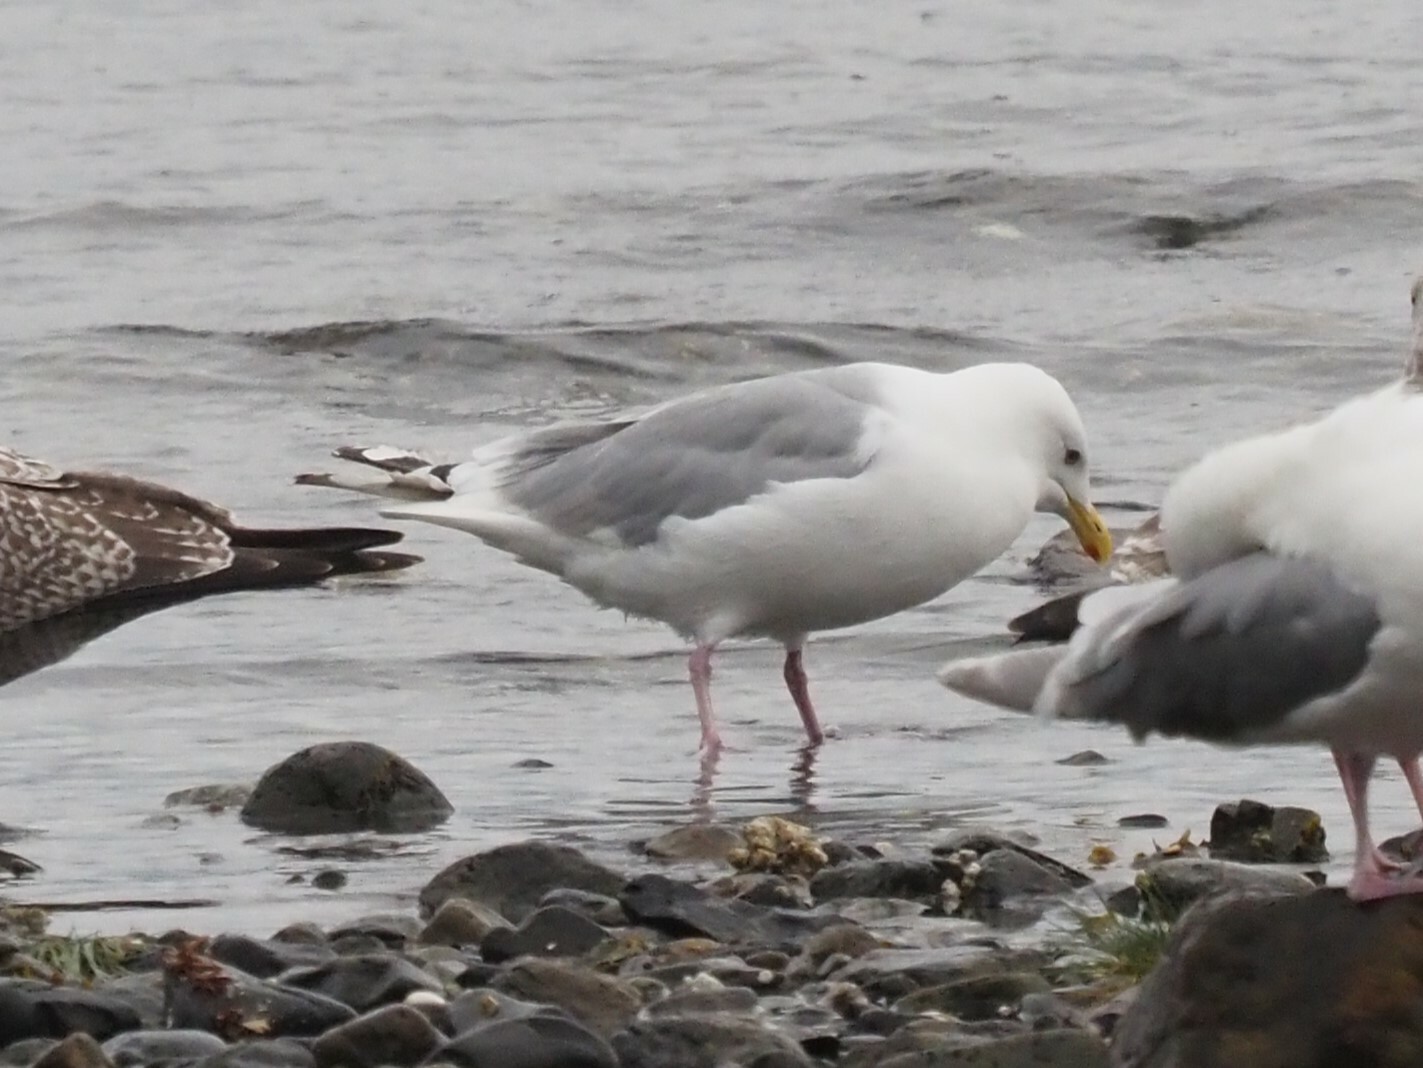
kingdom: Animalia
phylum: Chordata
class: Aves
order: Charadriiformes
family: Laridae
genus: Larus
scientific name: Larus glaucoides
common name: Iceland gull
